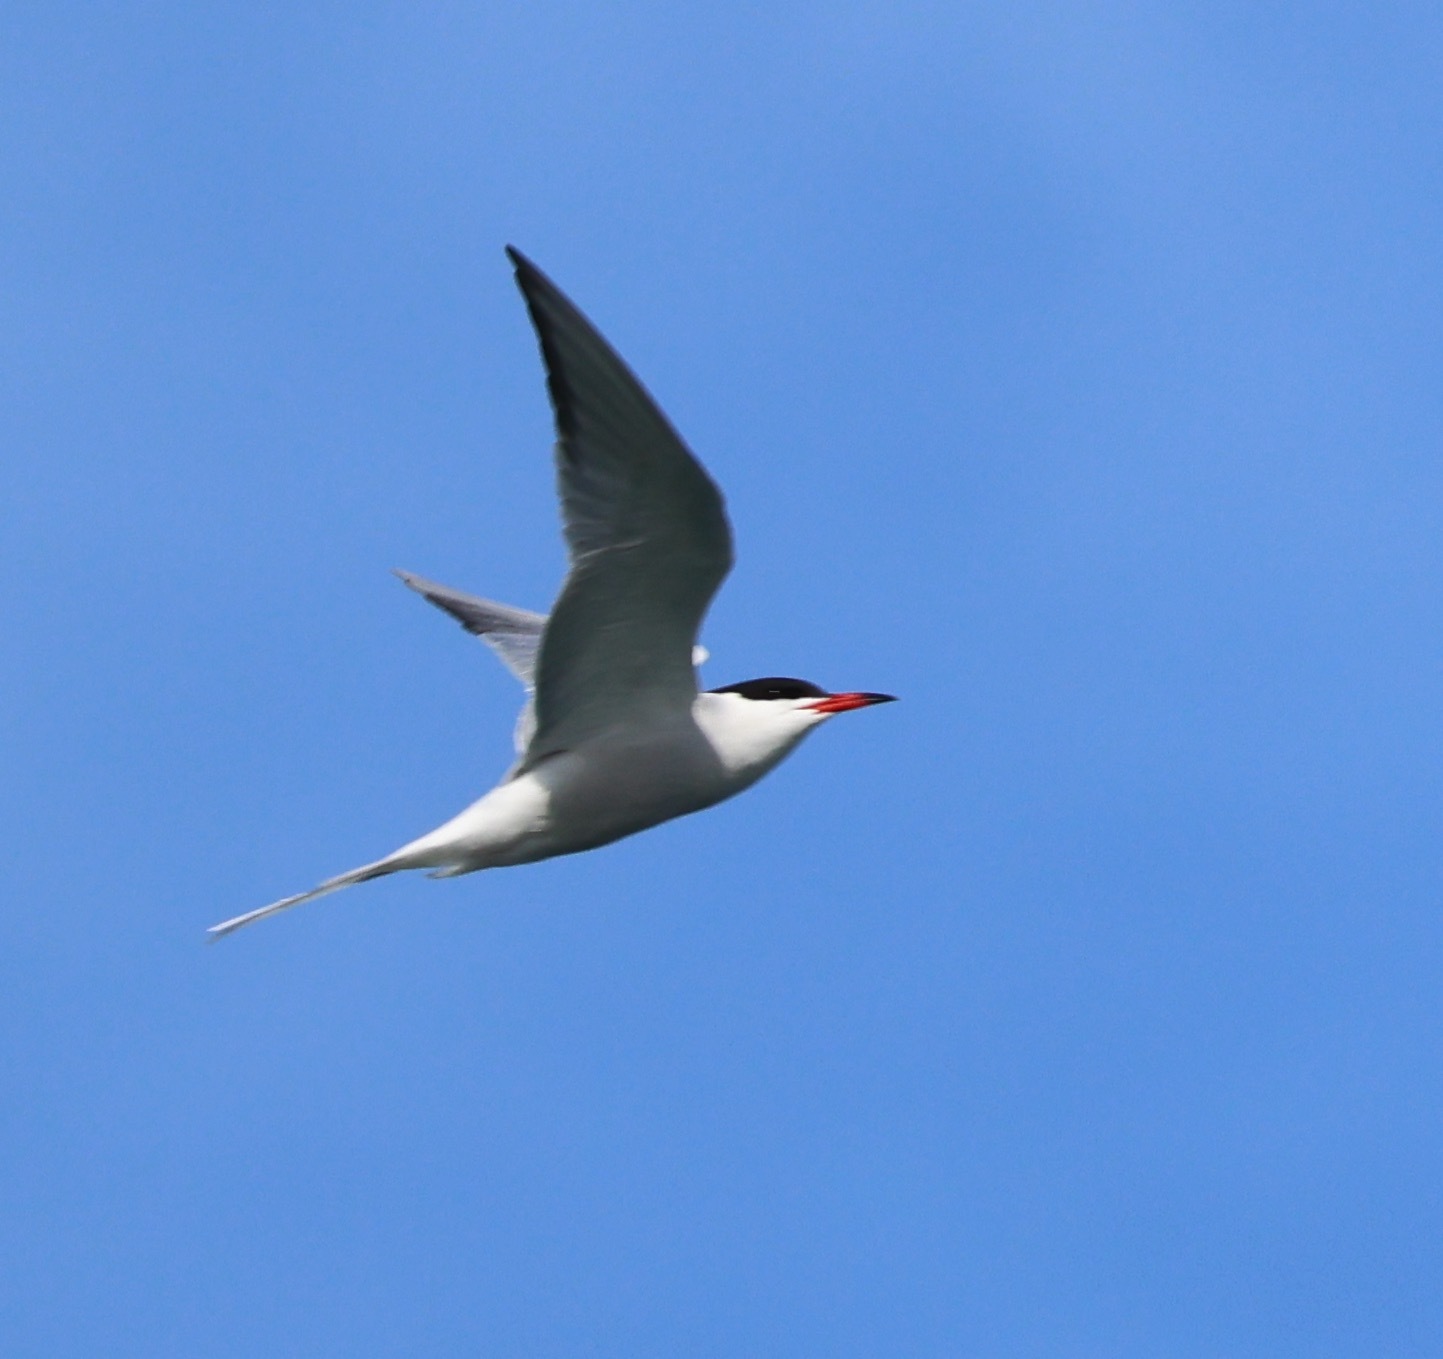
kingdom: Animalia
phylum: Chordata
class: Aves
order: Charadriiformes
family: Laridae
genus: Sterna
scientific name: Sterna hirundo
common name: Common tern
